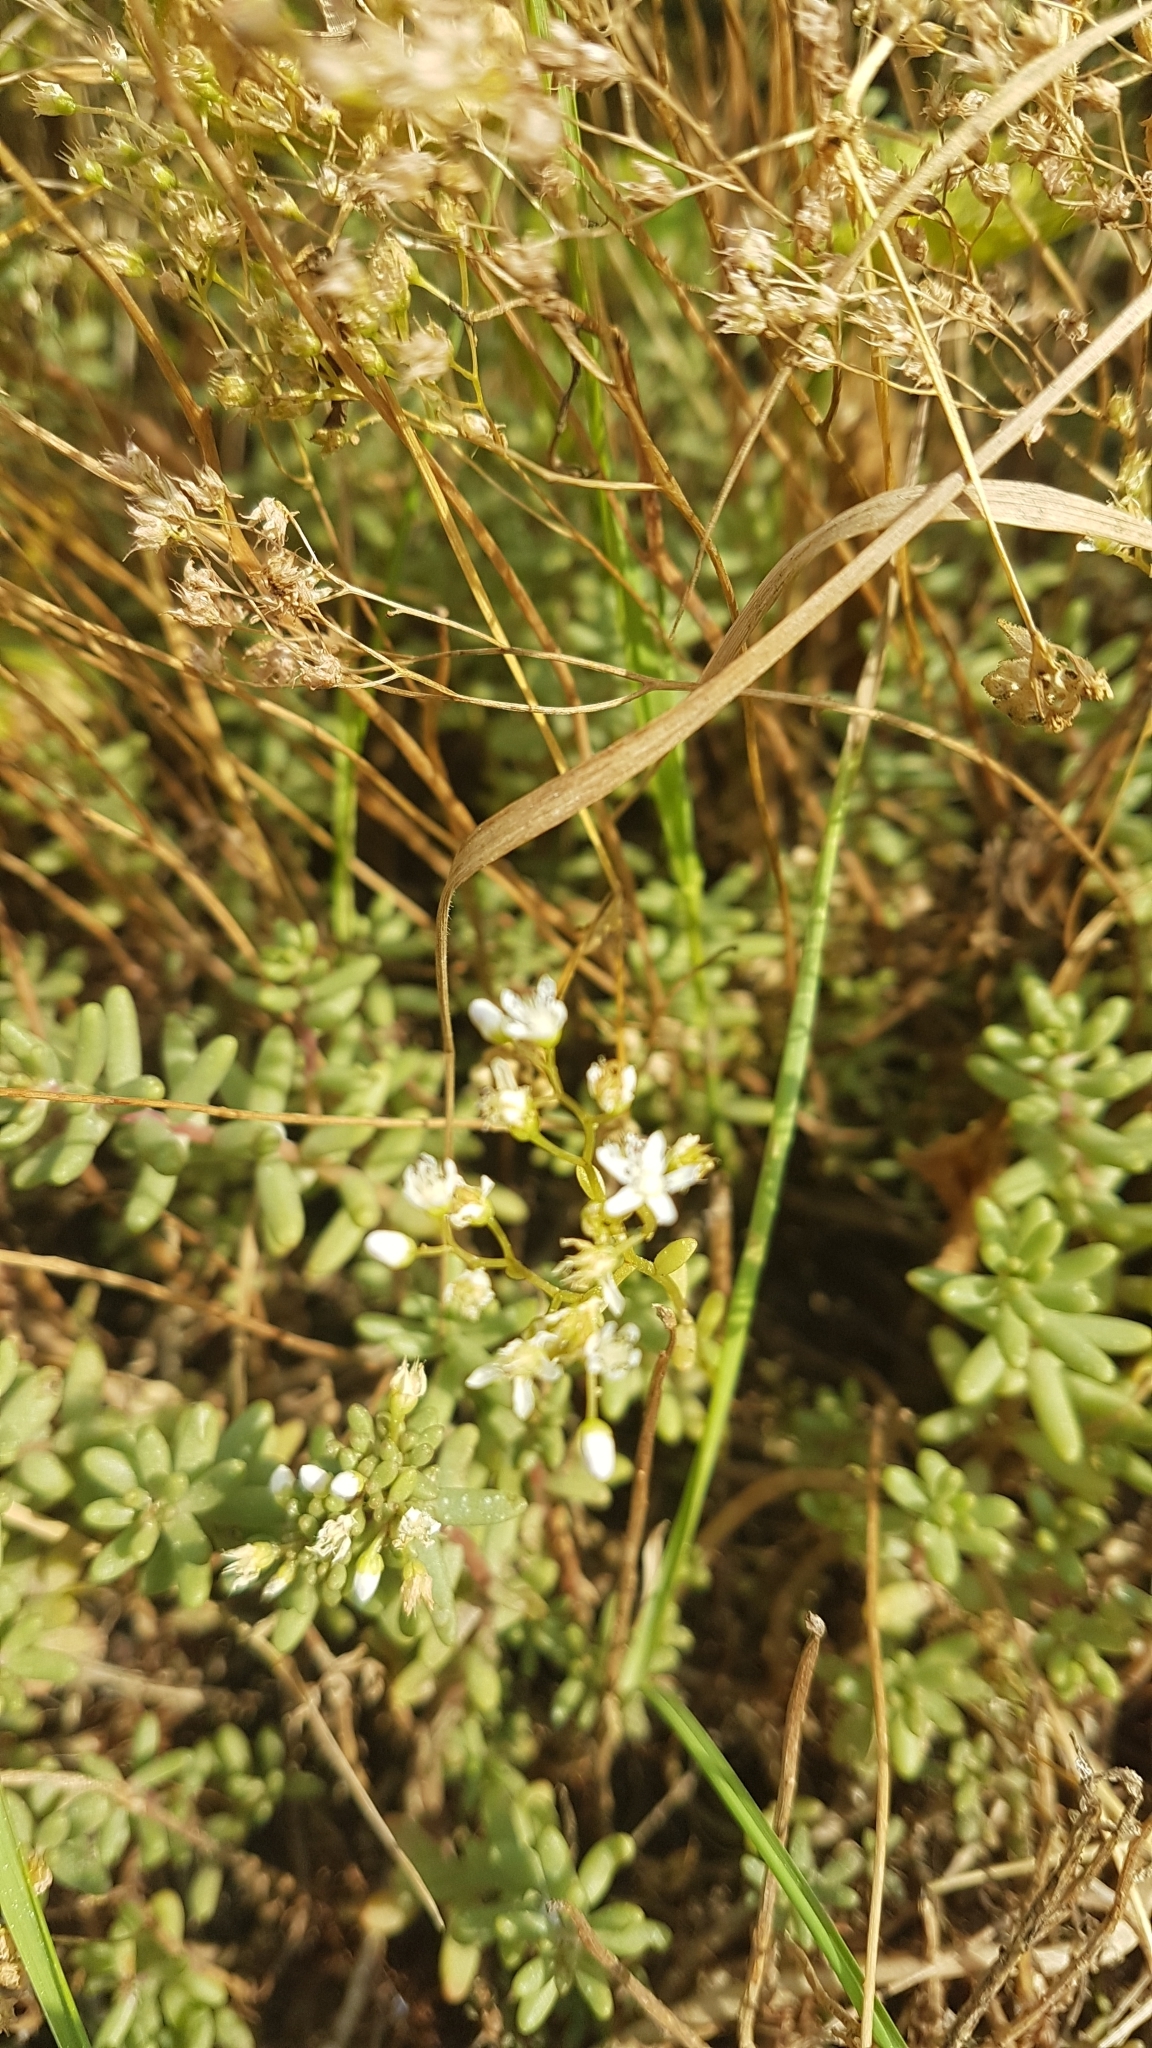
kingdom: Plantae
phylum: Tracheophyta
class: Magnoliopsida
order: Saxifragales
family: Crassulaceae
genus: Sedum
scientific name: Sedum album
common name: White stonecrop
